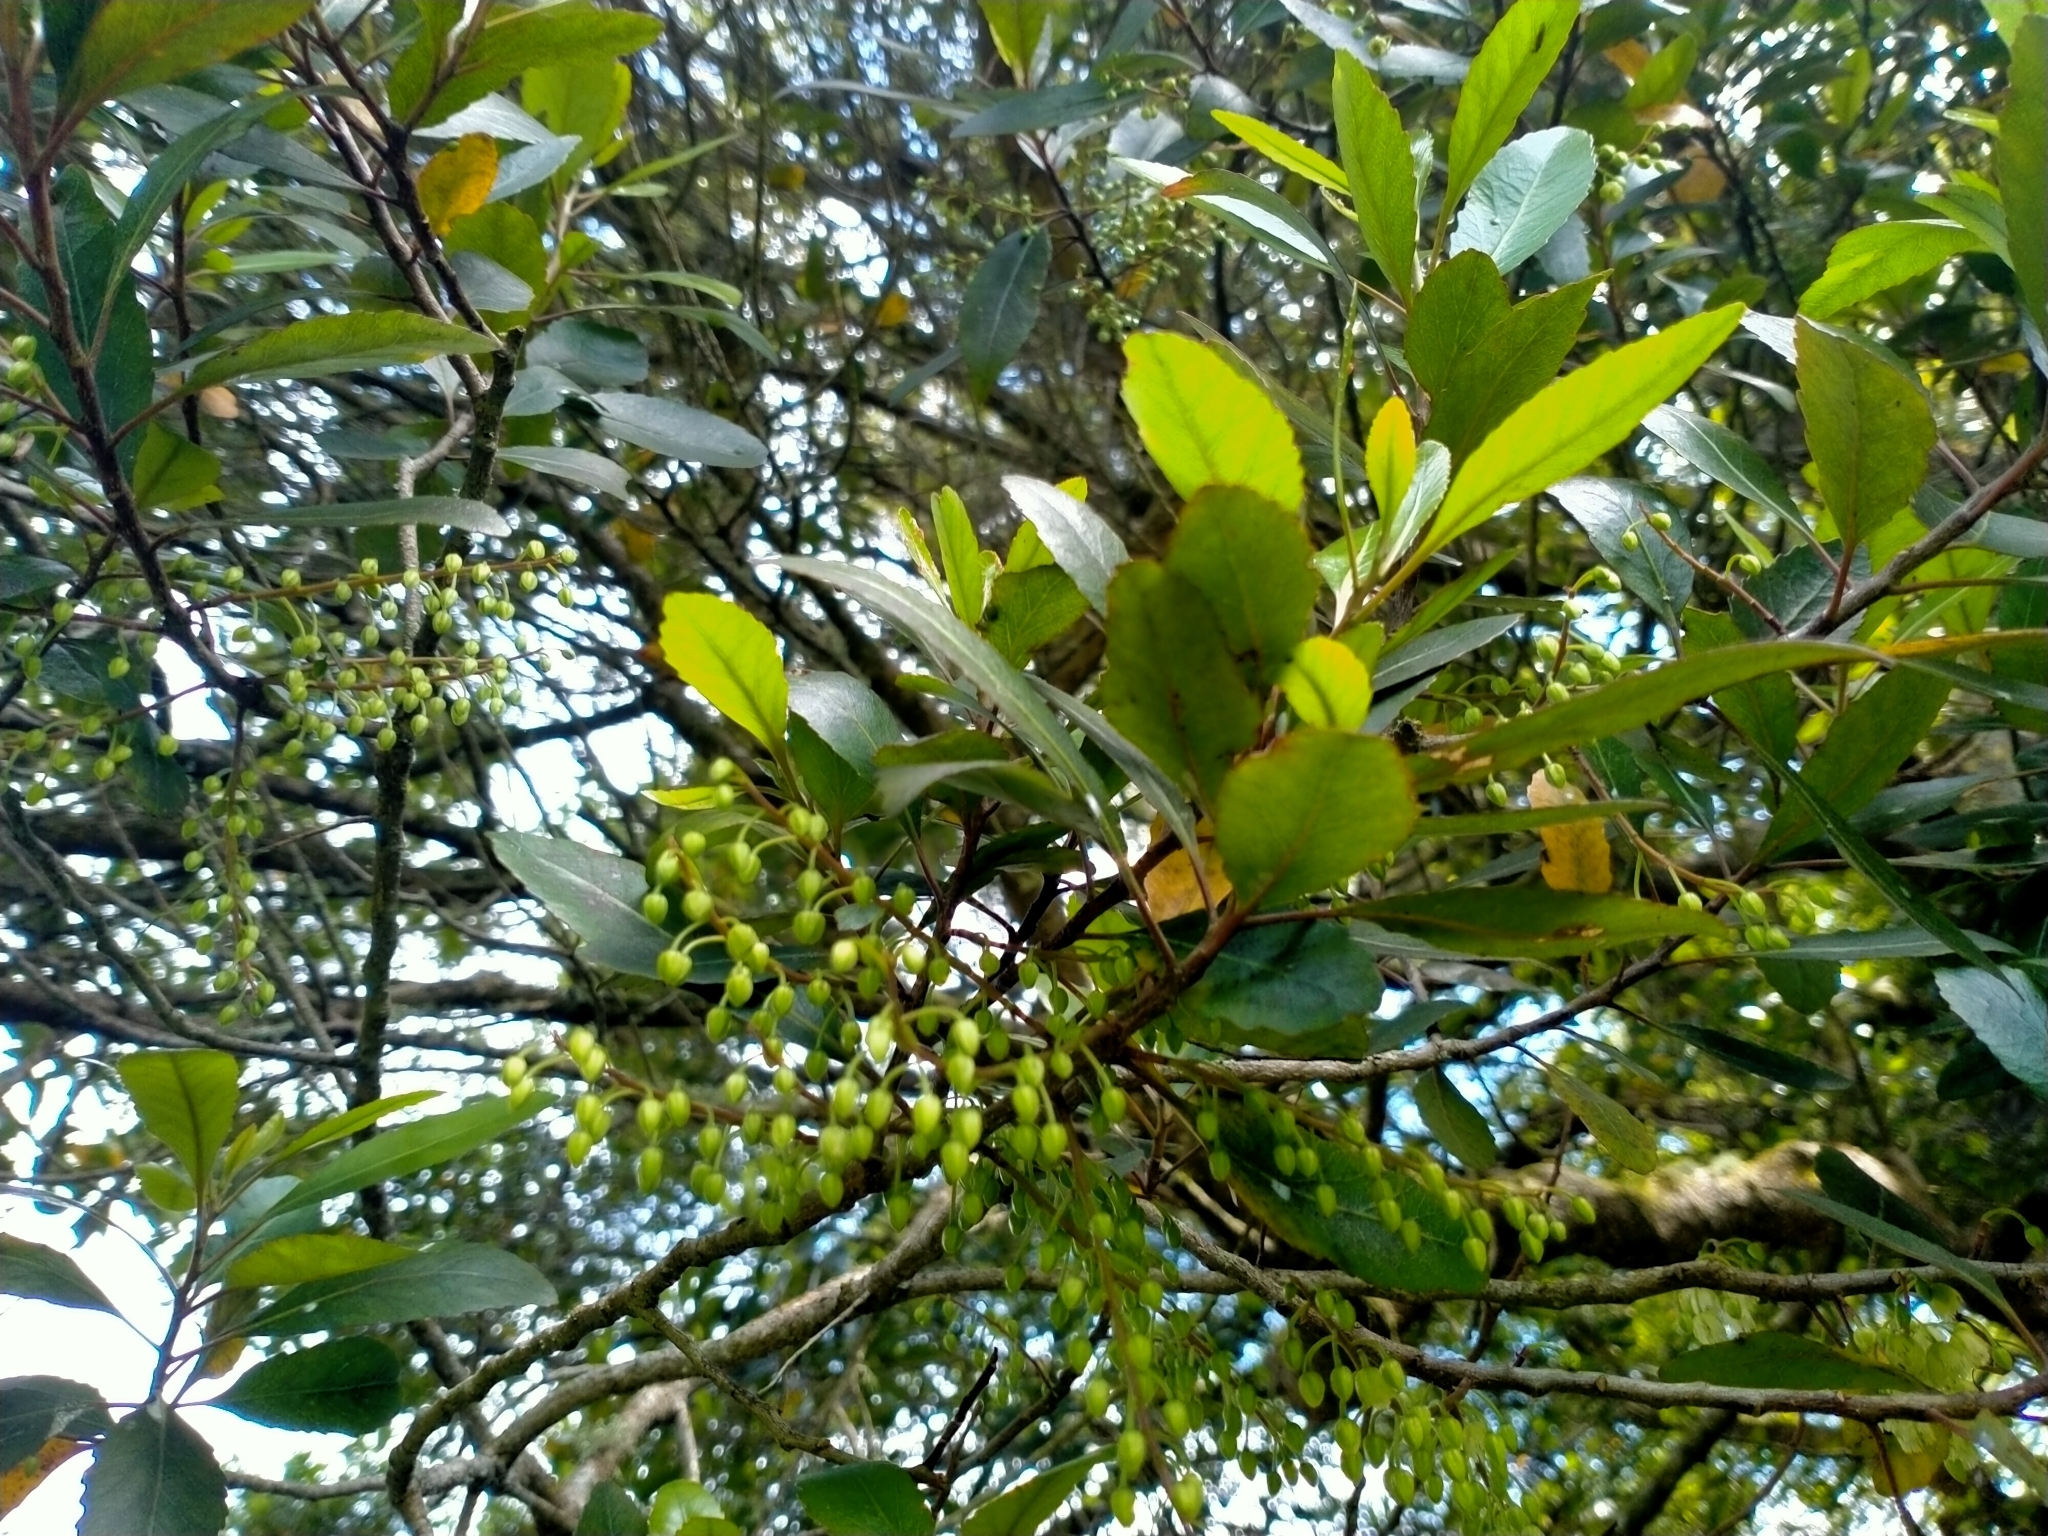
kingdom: Plantae
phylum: Tracheophyta
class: Magnoliopsida
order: Oxalidales
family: Elaeocarpaceae
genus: Elaeocarpus
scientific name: Elaeocarpus hookerianus
